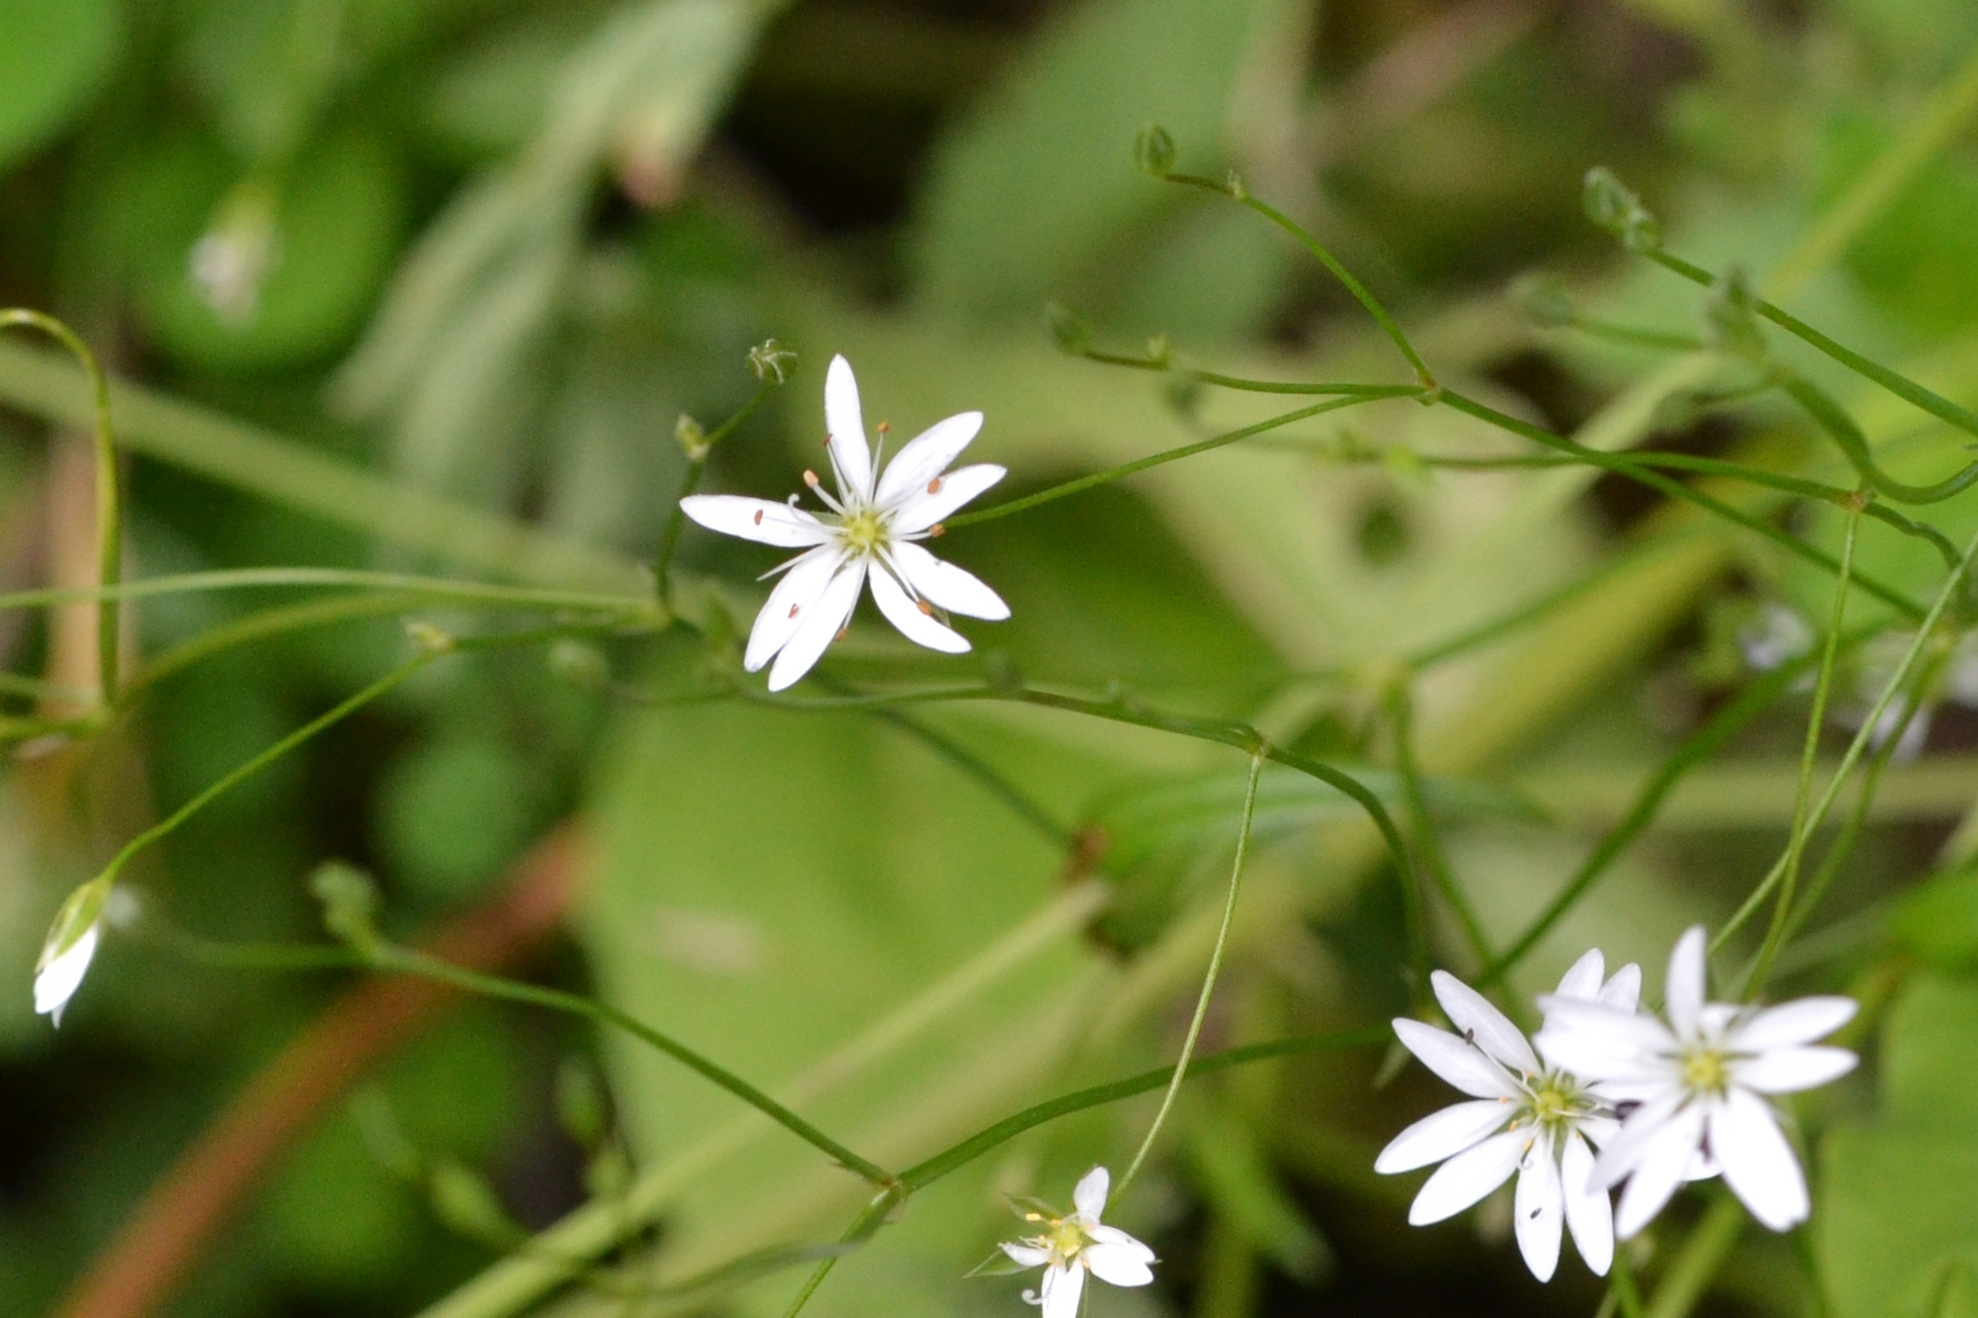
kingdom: Plantae
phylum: Tracheophyta
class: Magnoliopsida
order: Caryophyllales
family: Caryophyllaceae
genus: Stellaria
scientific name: Stellaria graminea
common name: Grass-like starwort
